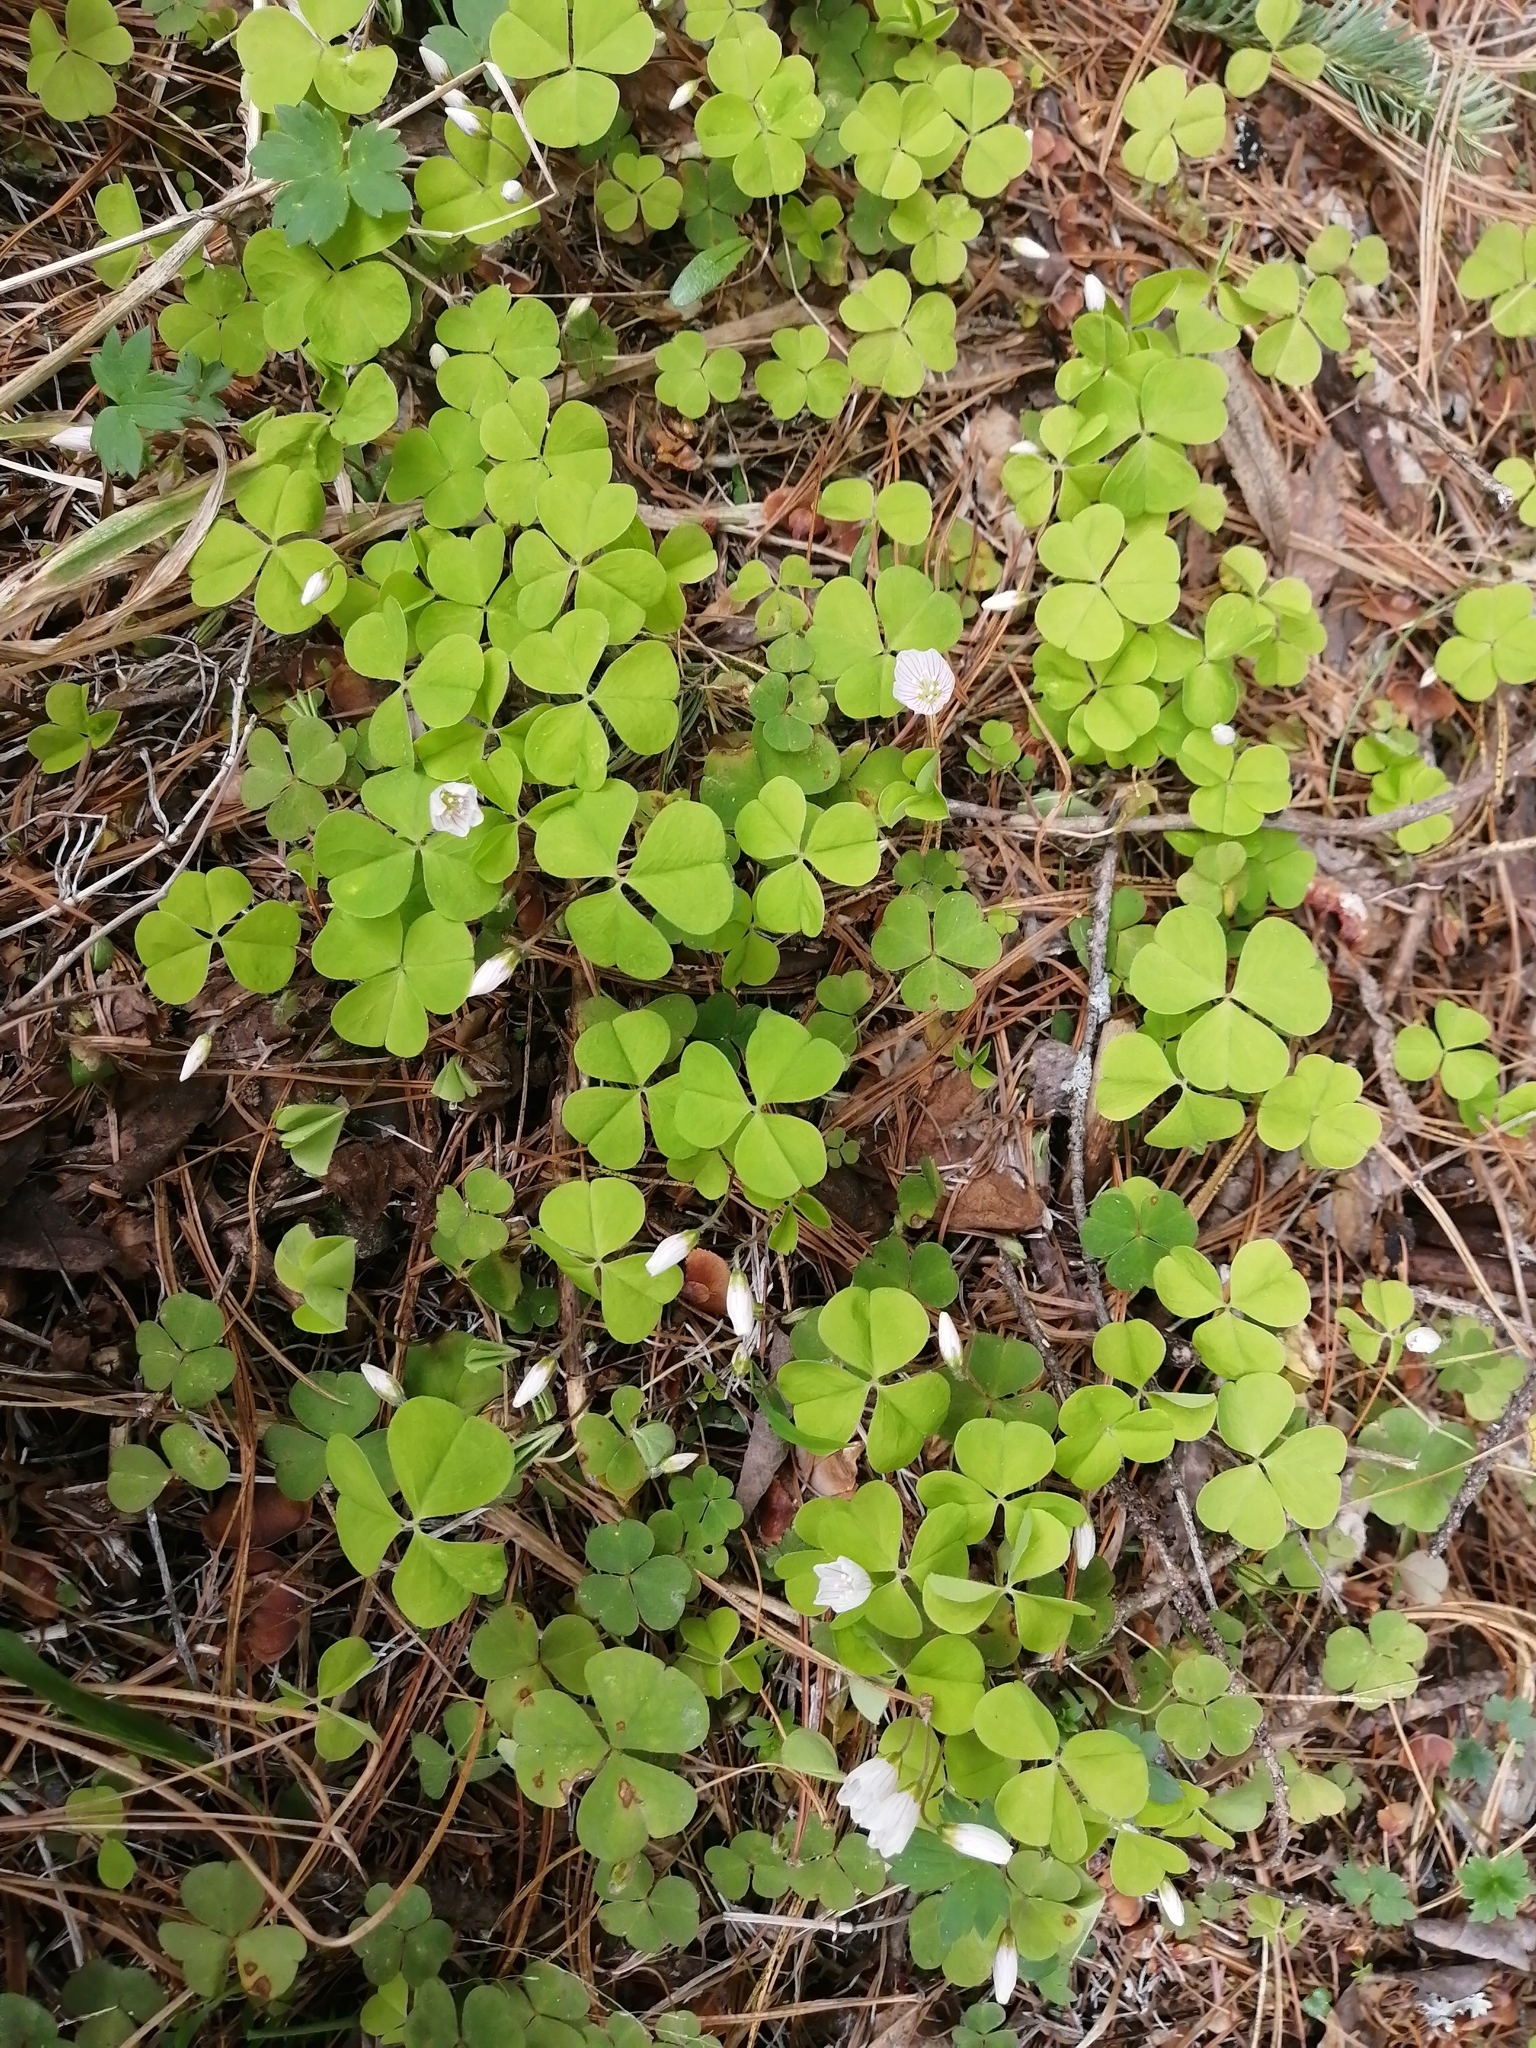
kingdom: Plantae
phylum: Tracheophyta
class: Magnoliopsida
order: Oxalidales
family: Oxalidaceae
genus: Oxalis
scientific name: Oxalis acetosella
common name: Wood-sorrel
